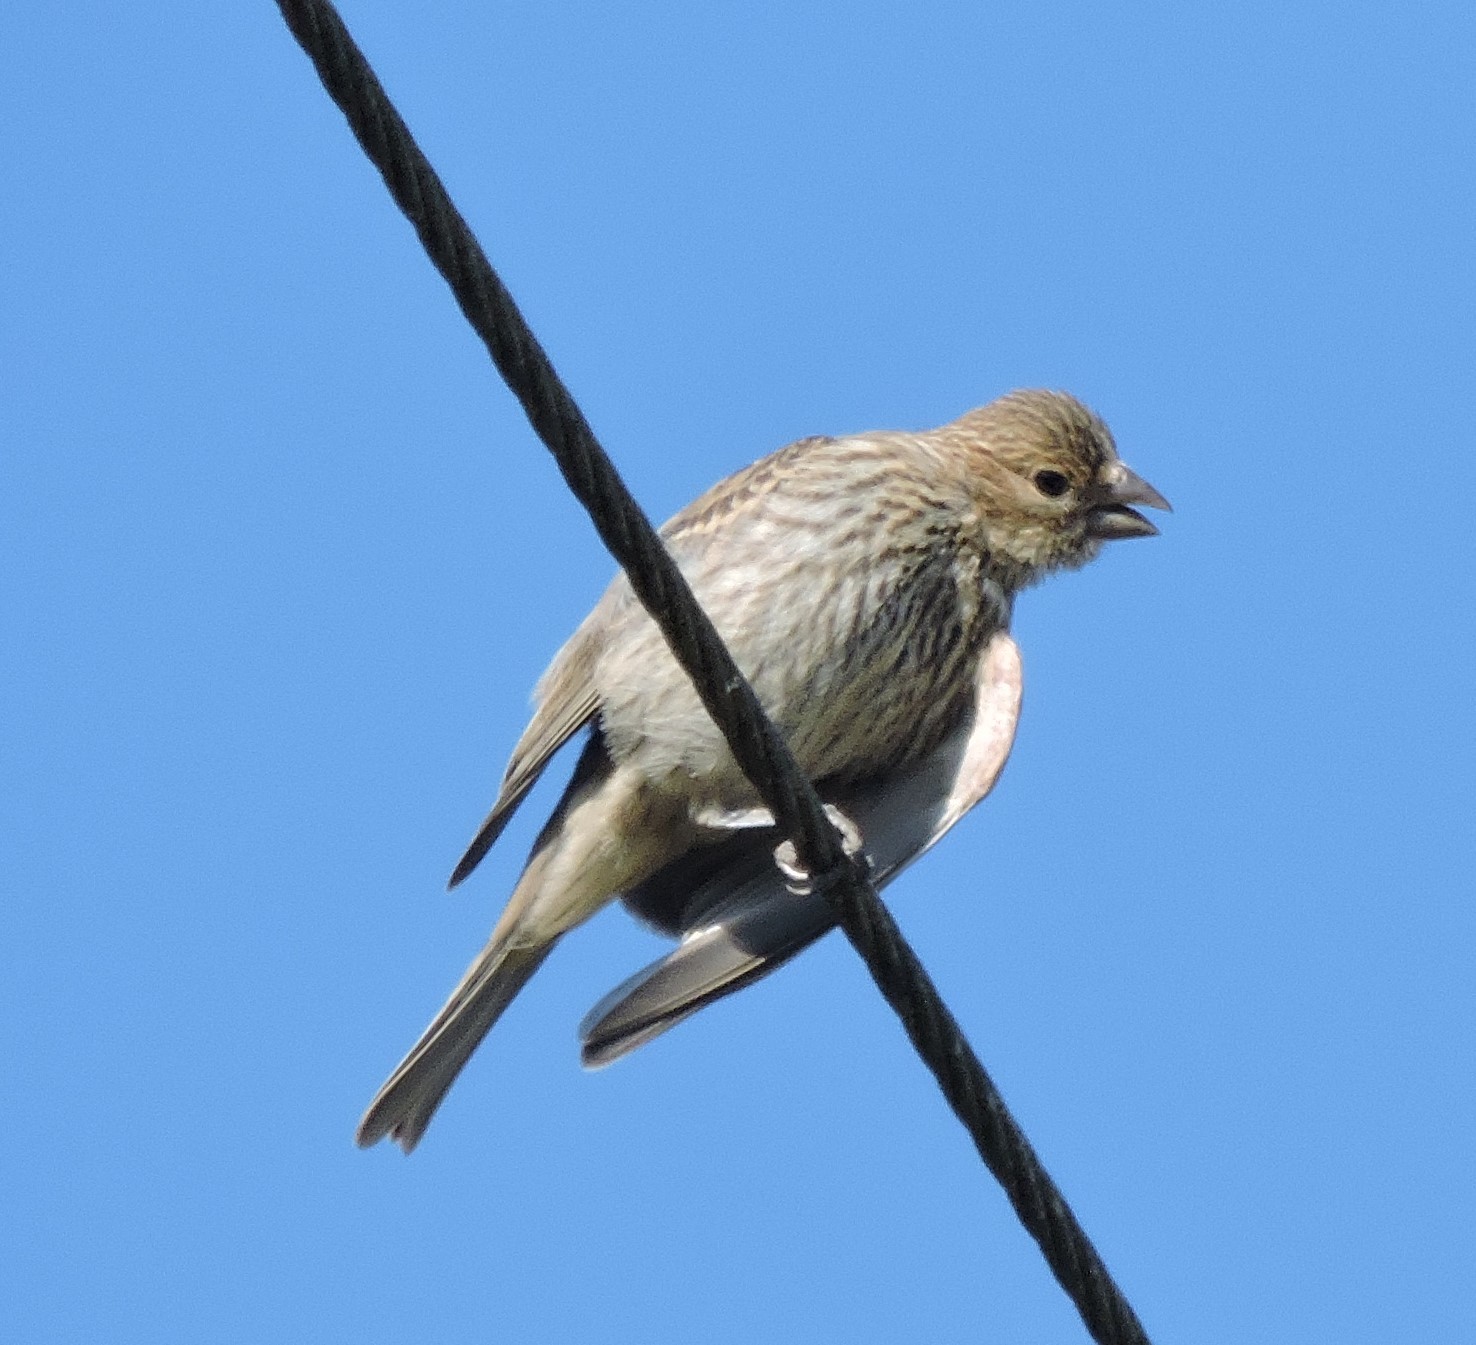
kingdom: Animalia
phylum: Chordata
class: Aves
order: Passeriformes
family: Fringillidae
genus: Haemorhous
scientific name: Haemorhous mexicanus
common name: House finch
